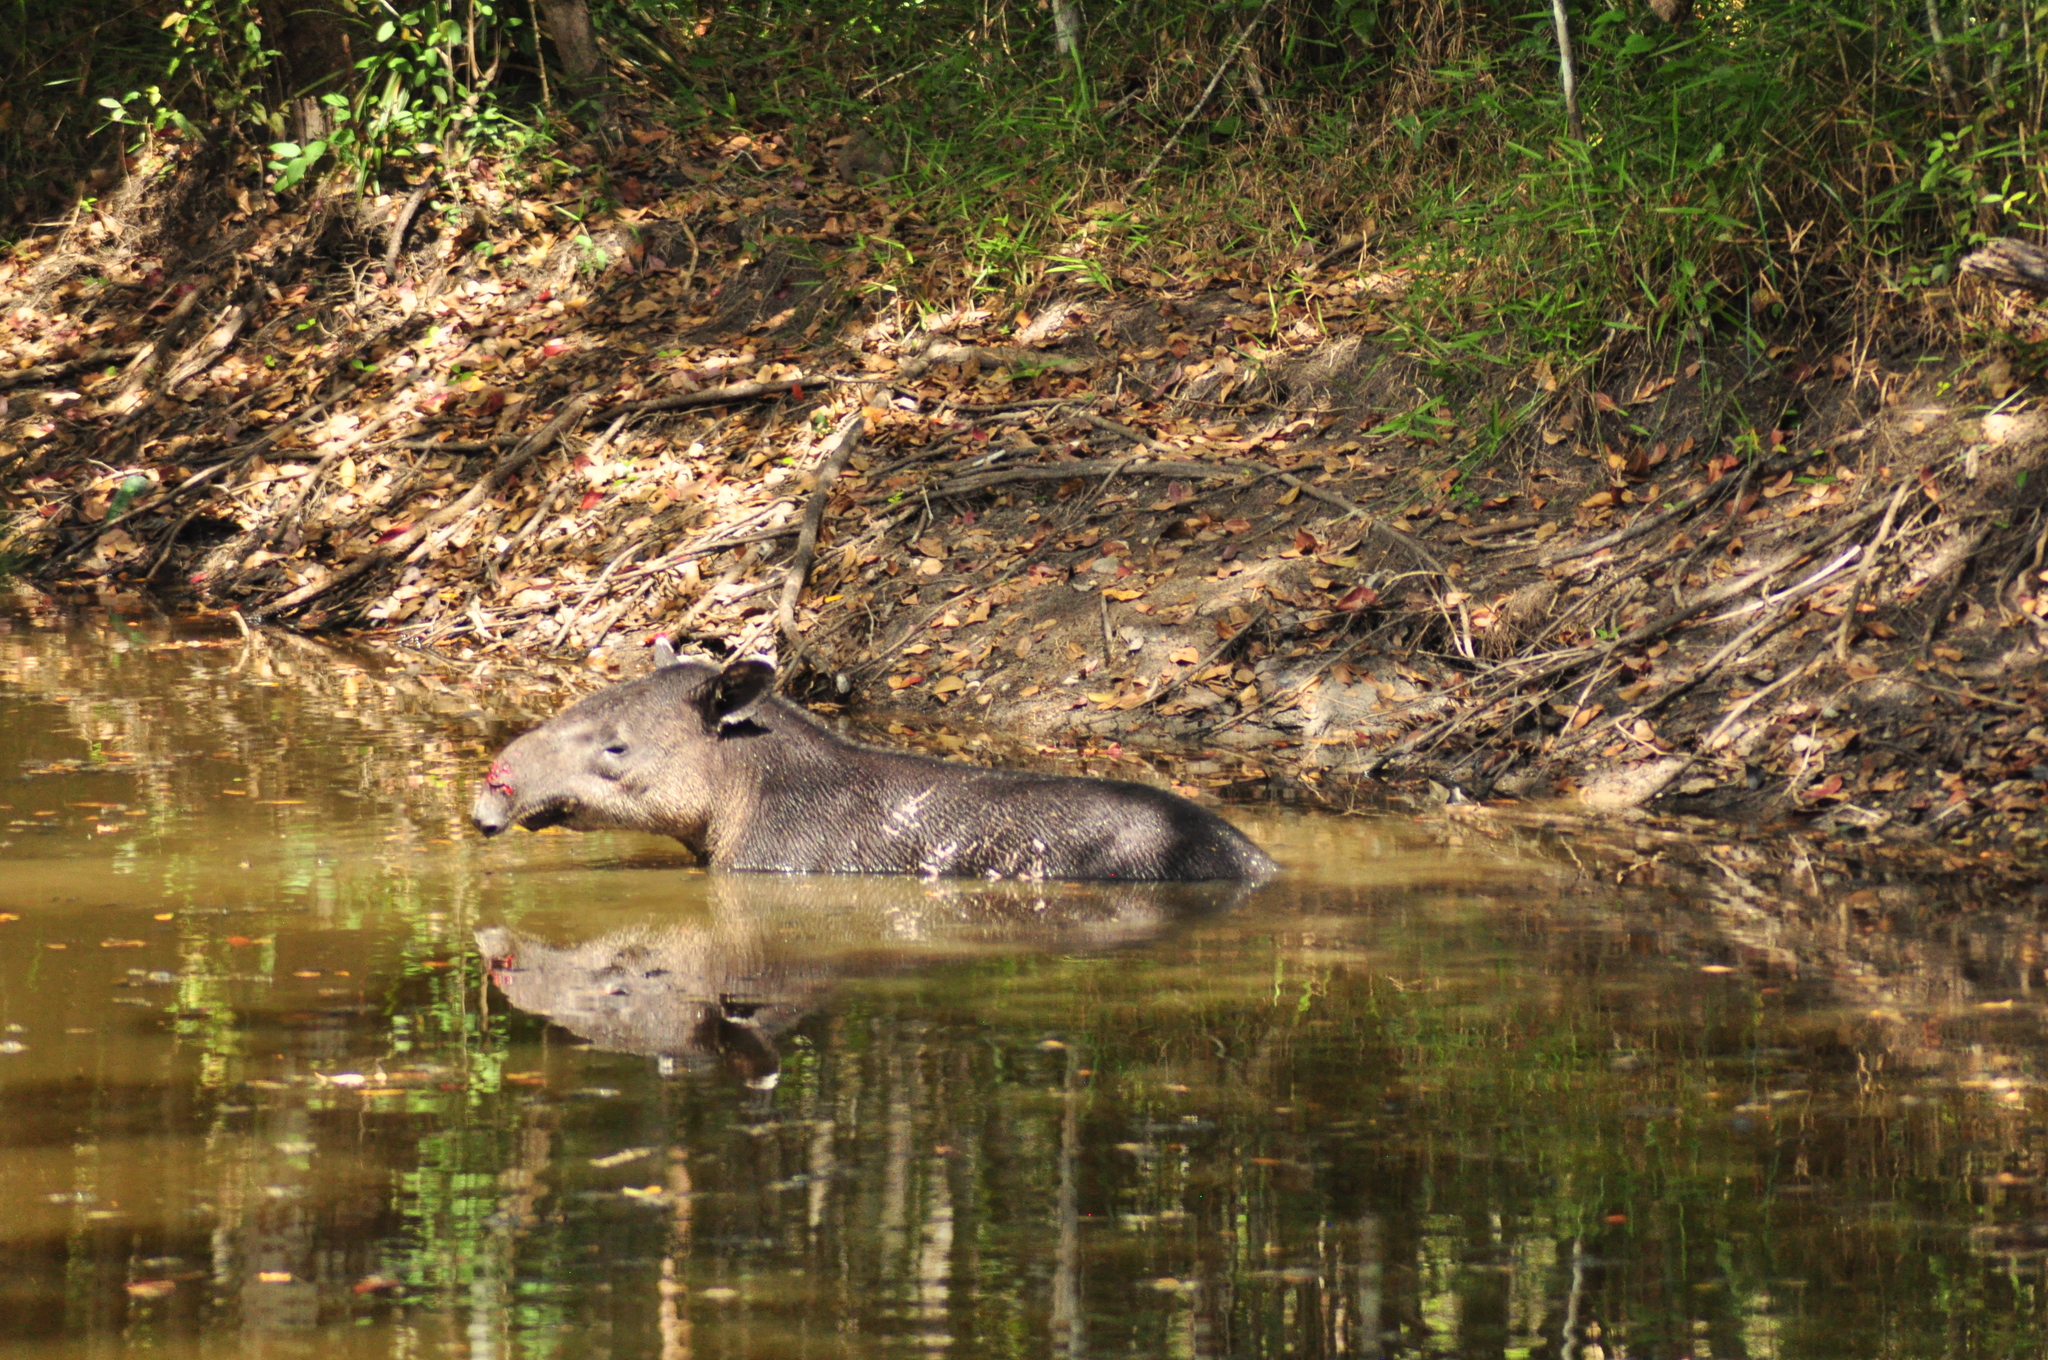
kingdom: Animalia
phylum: Chordata
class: Mammalia
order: Perissodactyla
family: Tapiridae
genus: Tapirella
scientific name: Tapirella bairdii
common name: Baird's tapir
